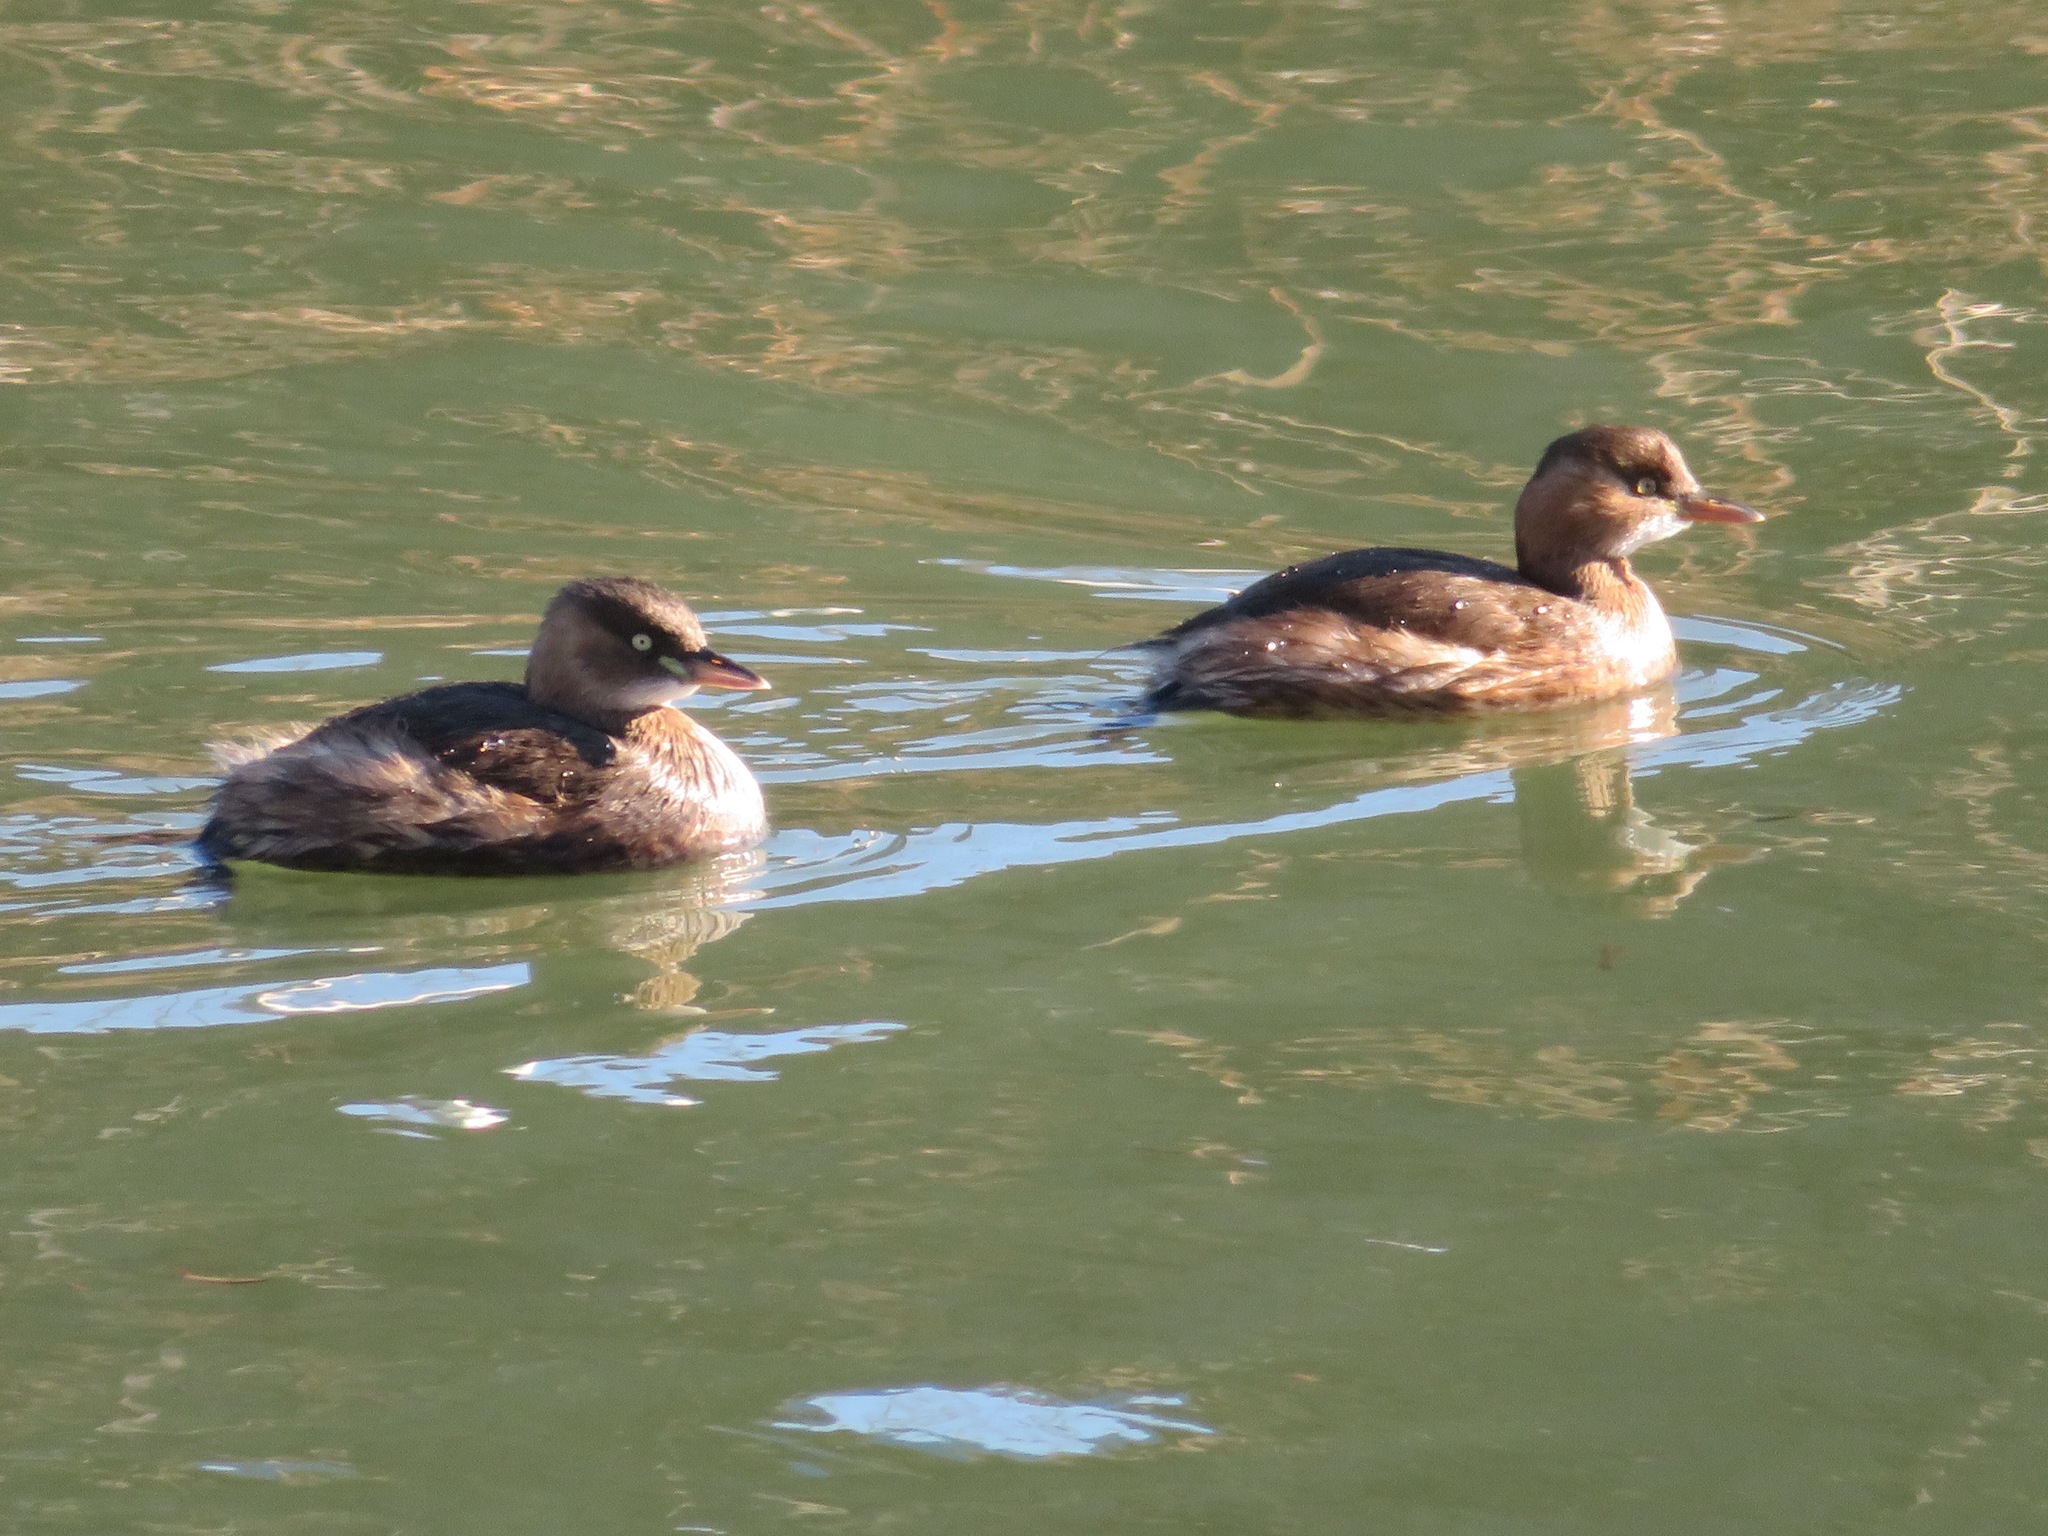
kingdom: Animalia
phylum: Chordata
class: Aves
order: Podicipediformes
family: Podicipedidae
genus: Tachybaptus
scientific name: Tachybaptus ruficollis
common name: Little grebe
